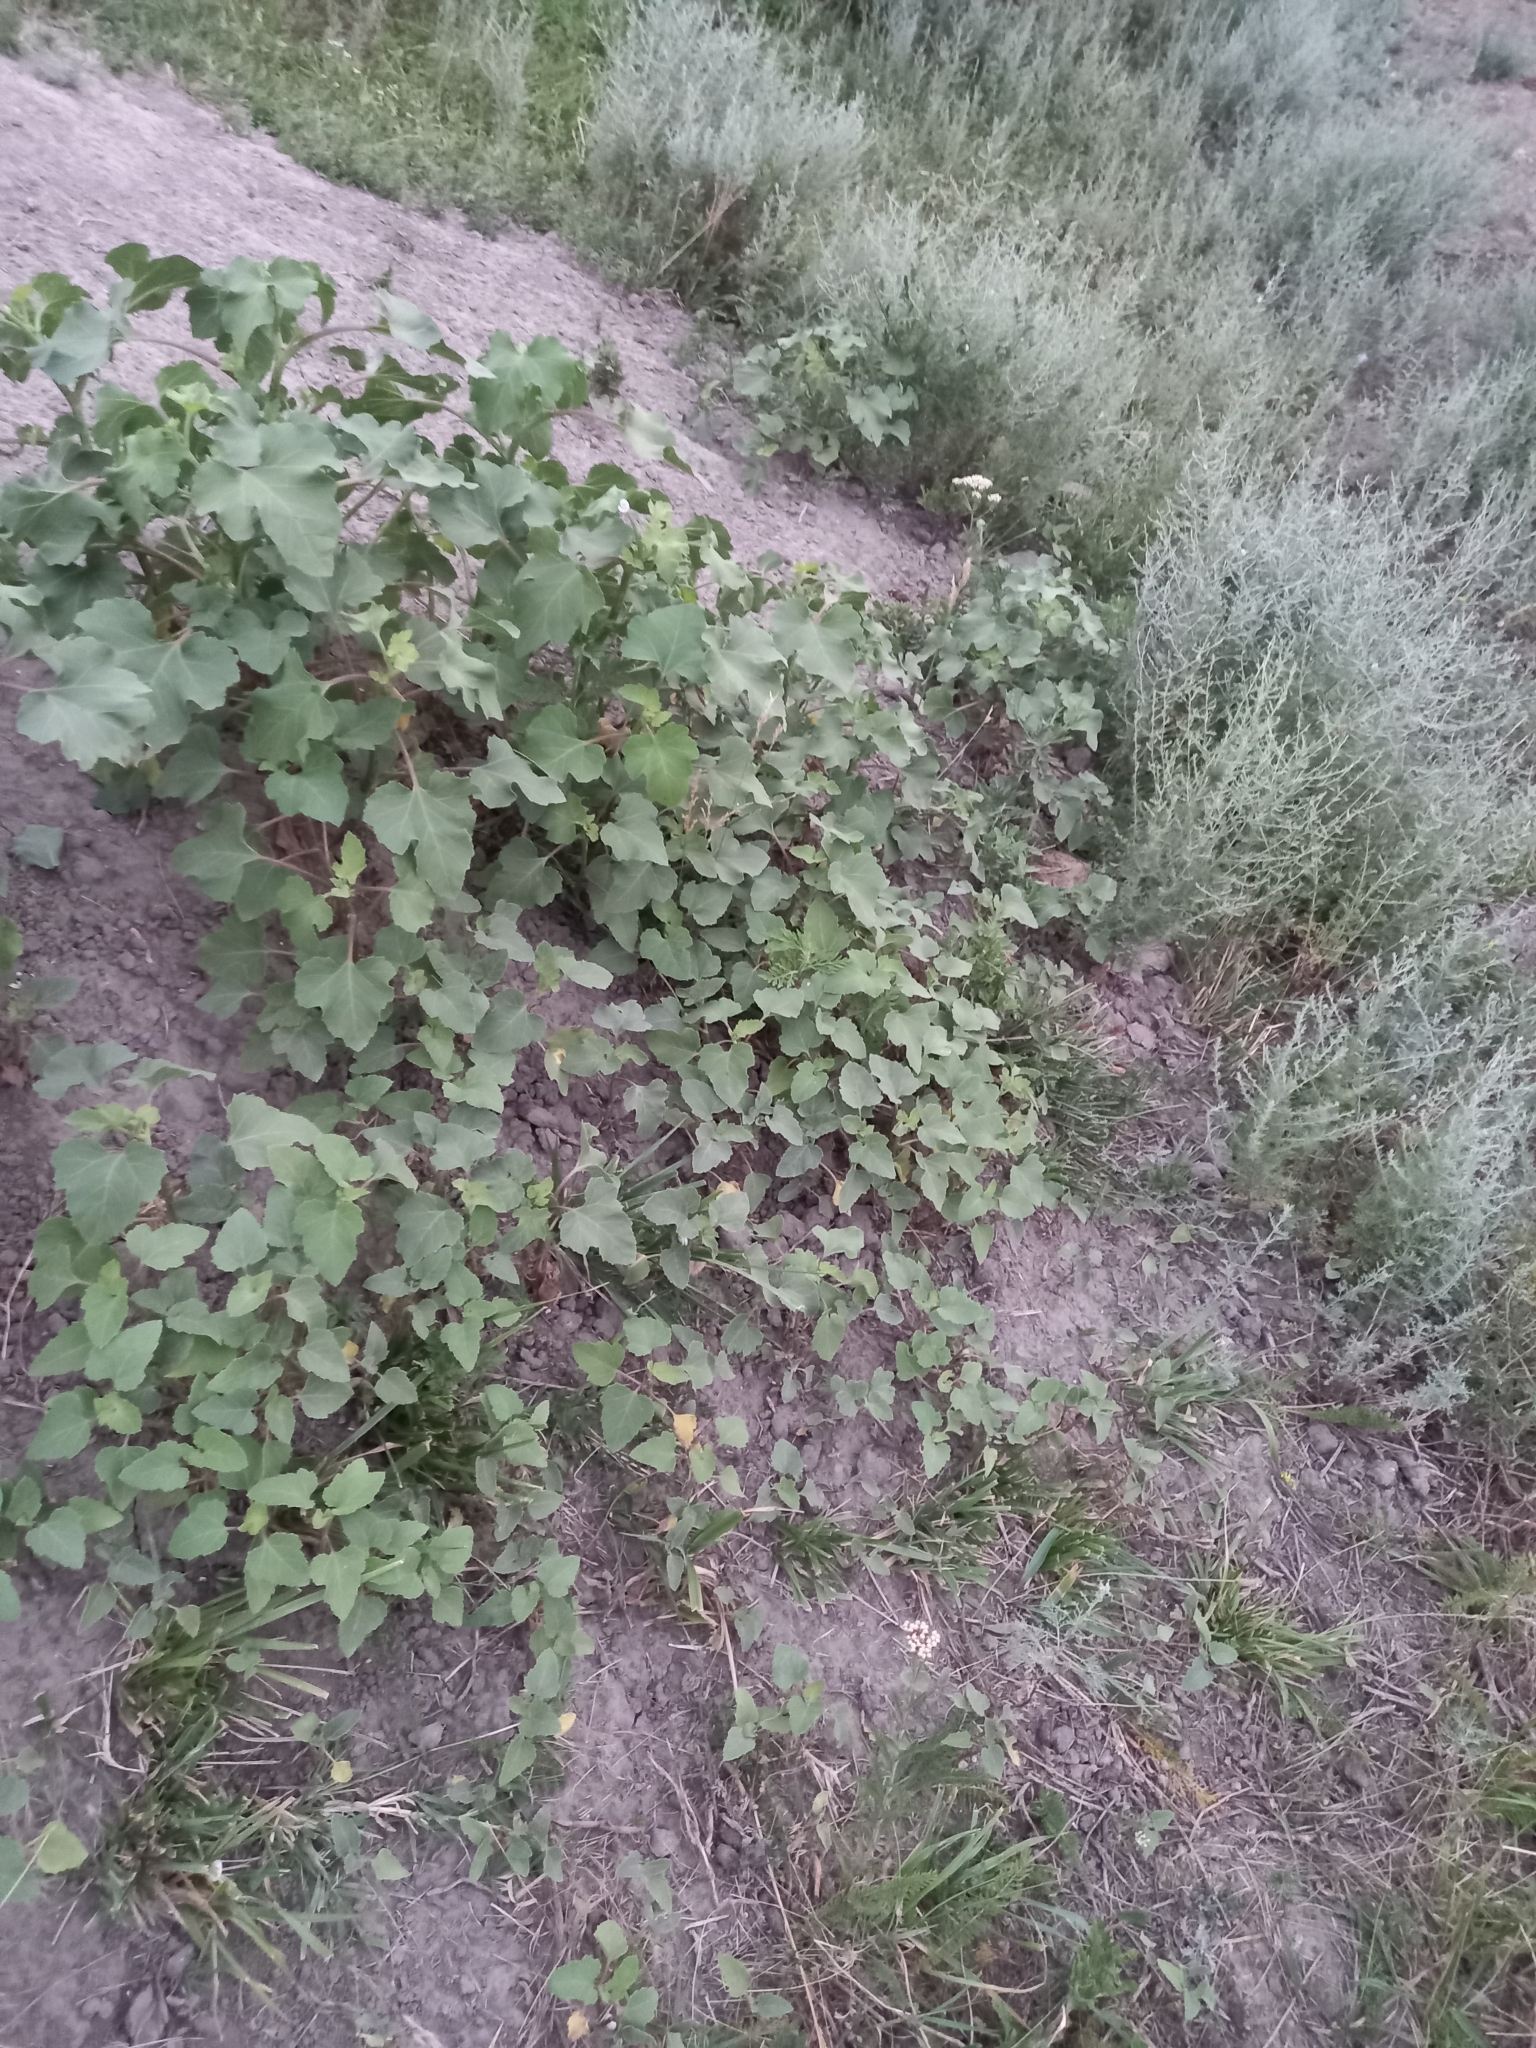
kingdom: Plantae
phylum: Tracheophyta
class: Magnoliopsida
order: Asterales
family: Asteraceae
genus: Xanthium
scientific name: Xanthium orientale
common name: Californian burr
